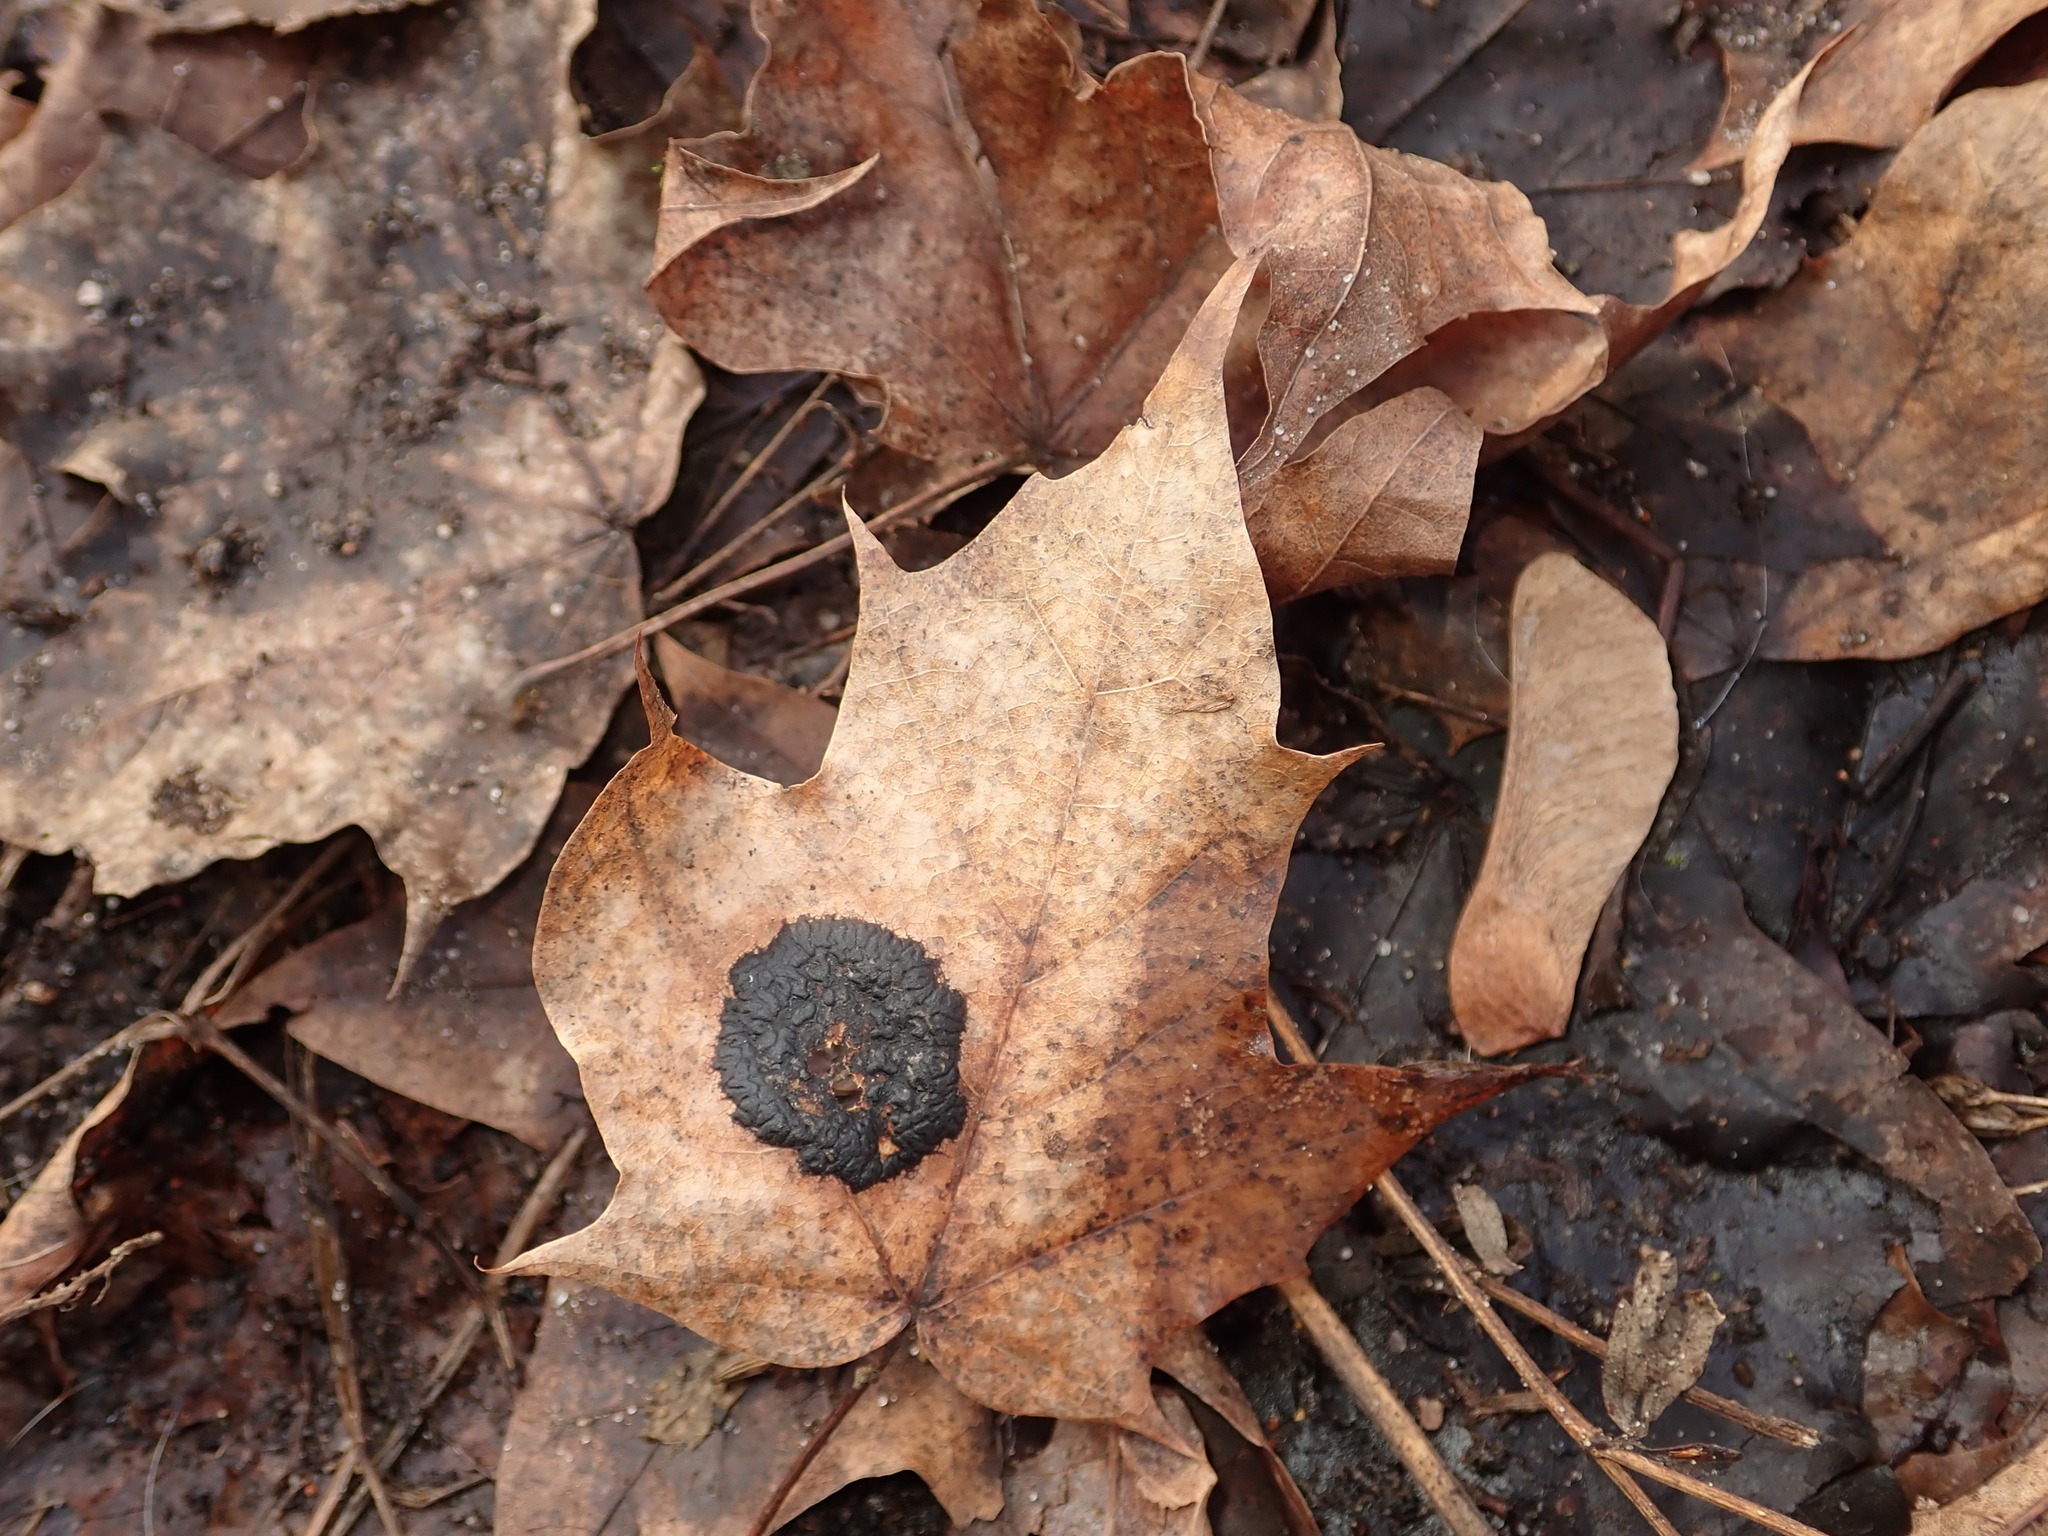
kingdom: Plantae
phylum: Tracheophyta
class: Magnoliopsida
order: Sapindales
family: Sapindaceae
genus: Acer
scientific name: Acer platanoides
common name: Norway maple
